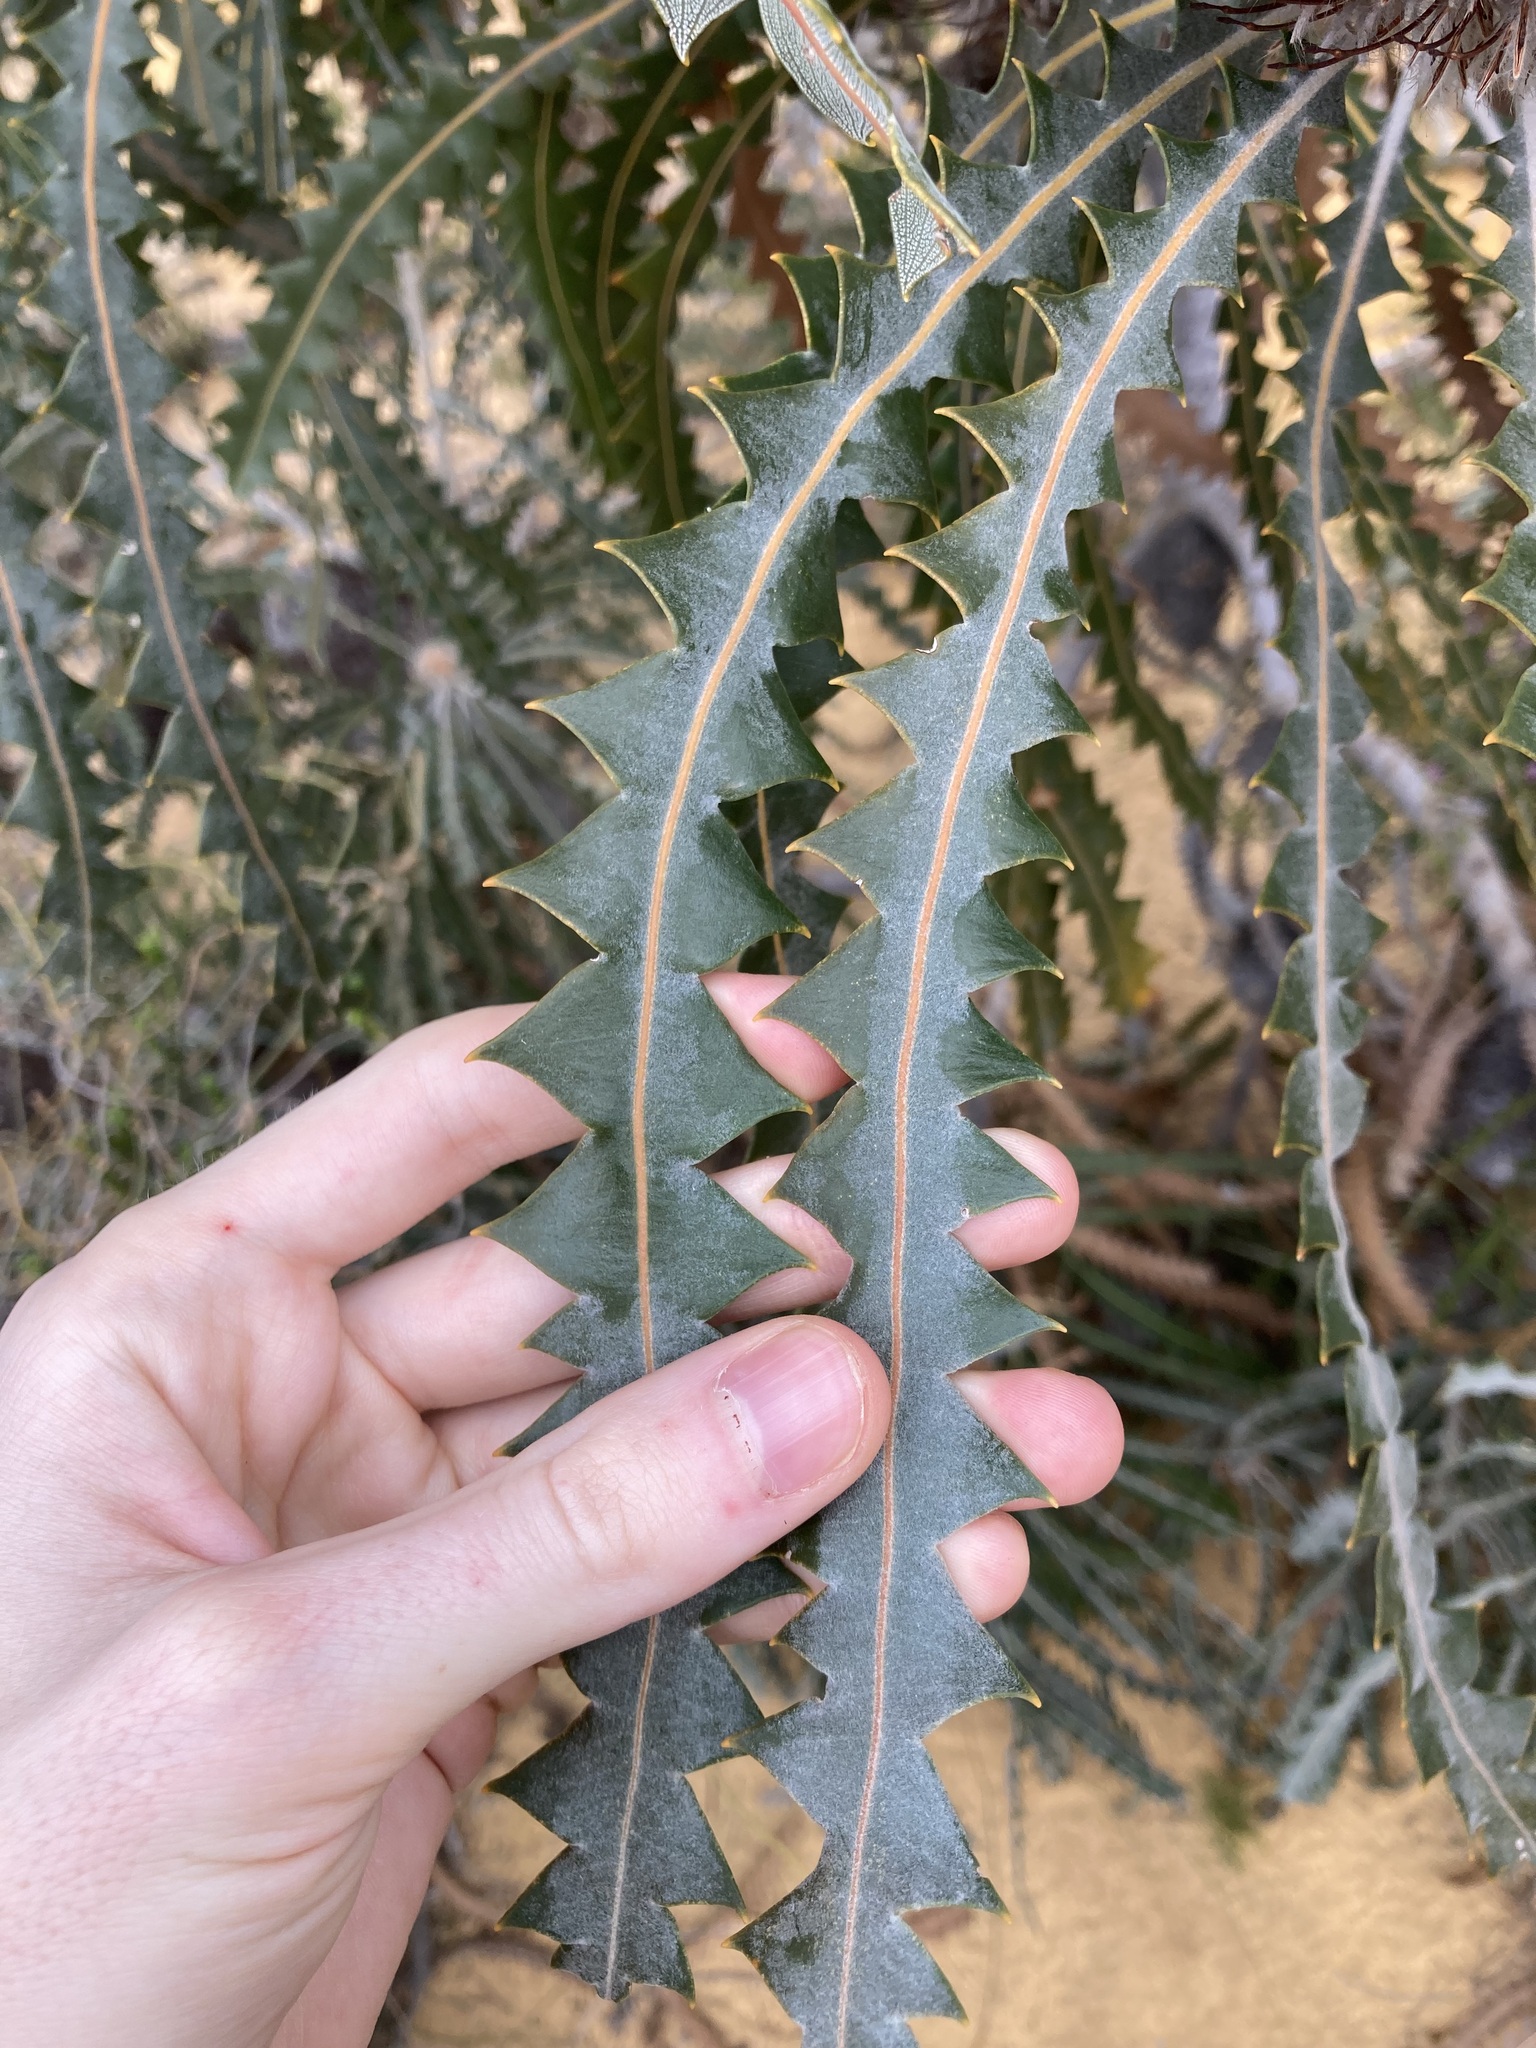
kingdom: Plantae
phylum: Tracheophyta
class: Magnoliopsida
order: Proteales
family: Proteaceae
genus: Banksia
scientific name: Banksia victoriae
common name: Woolly orange banksia
